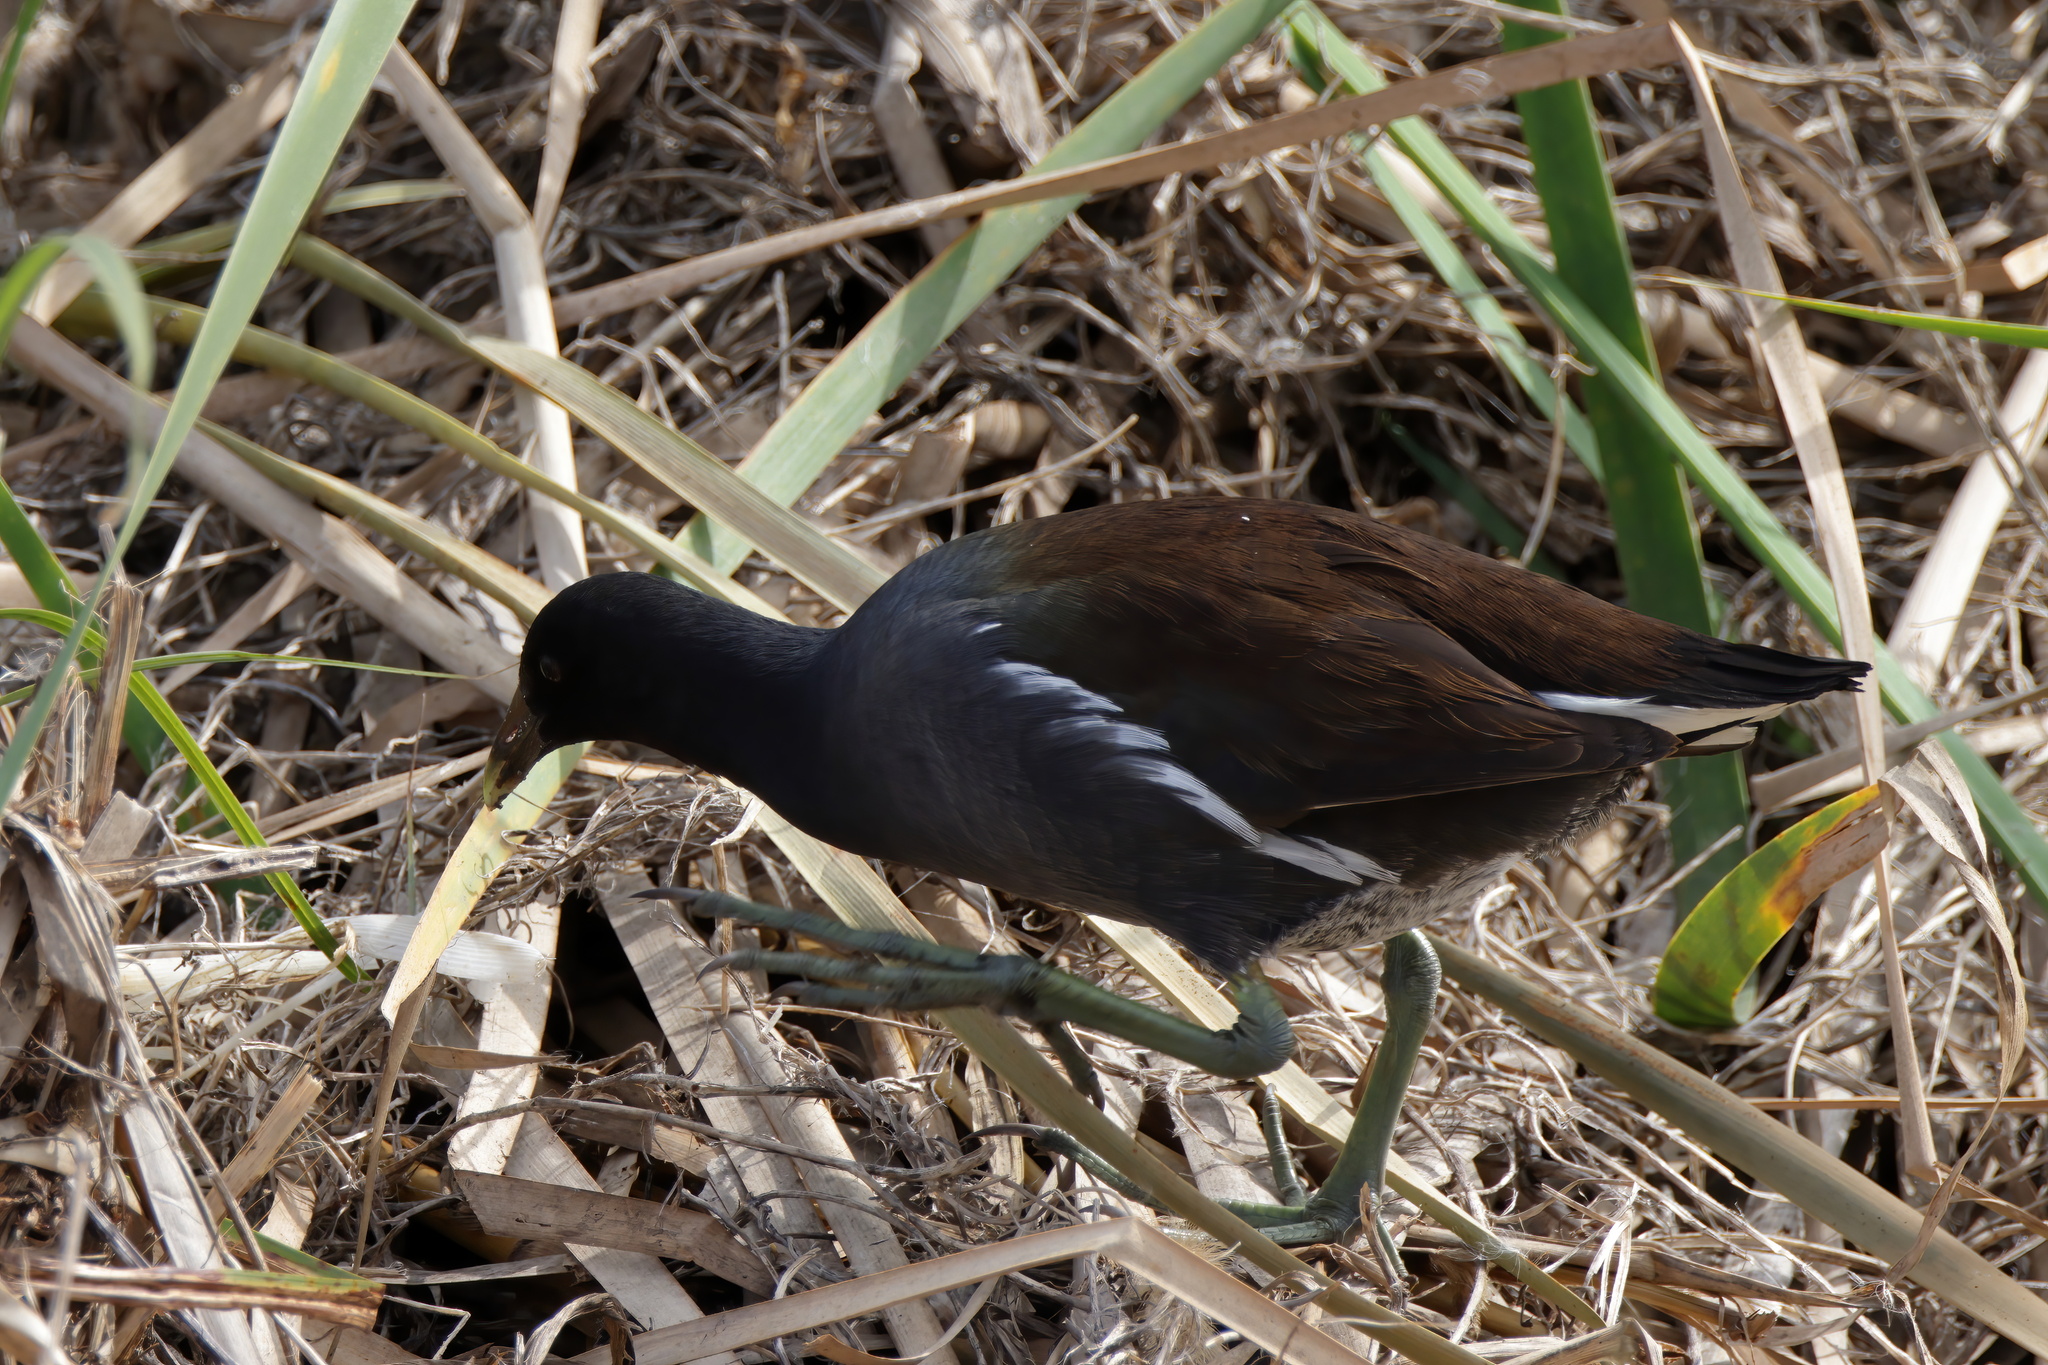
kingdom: Animalia
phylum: Chordata
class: Aves
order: Gruiformes
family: Rallidae
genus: Gallinula
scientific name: Gallinula chloropus
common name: Common moorhen
